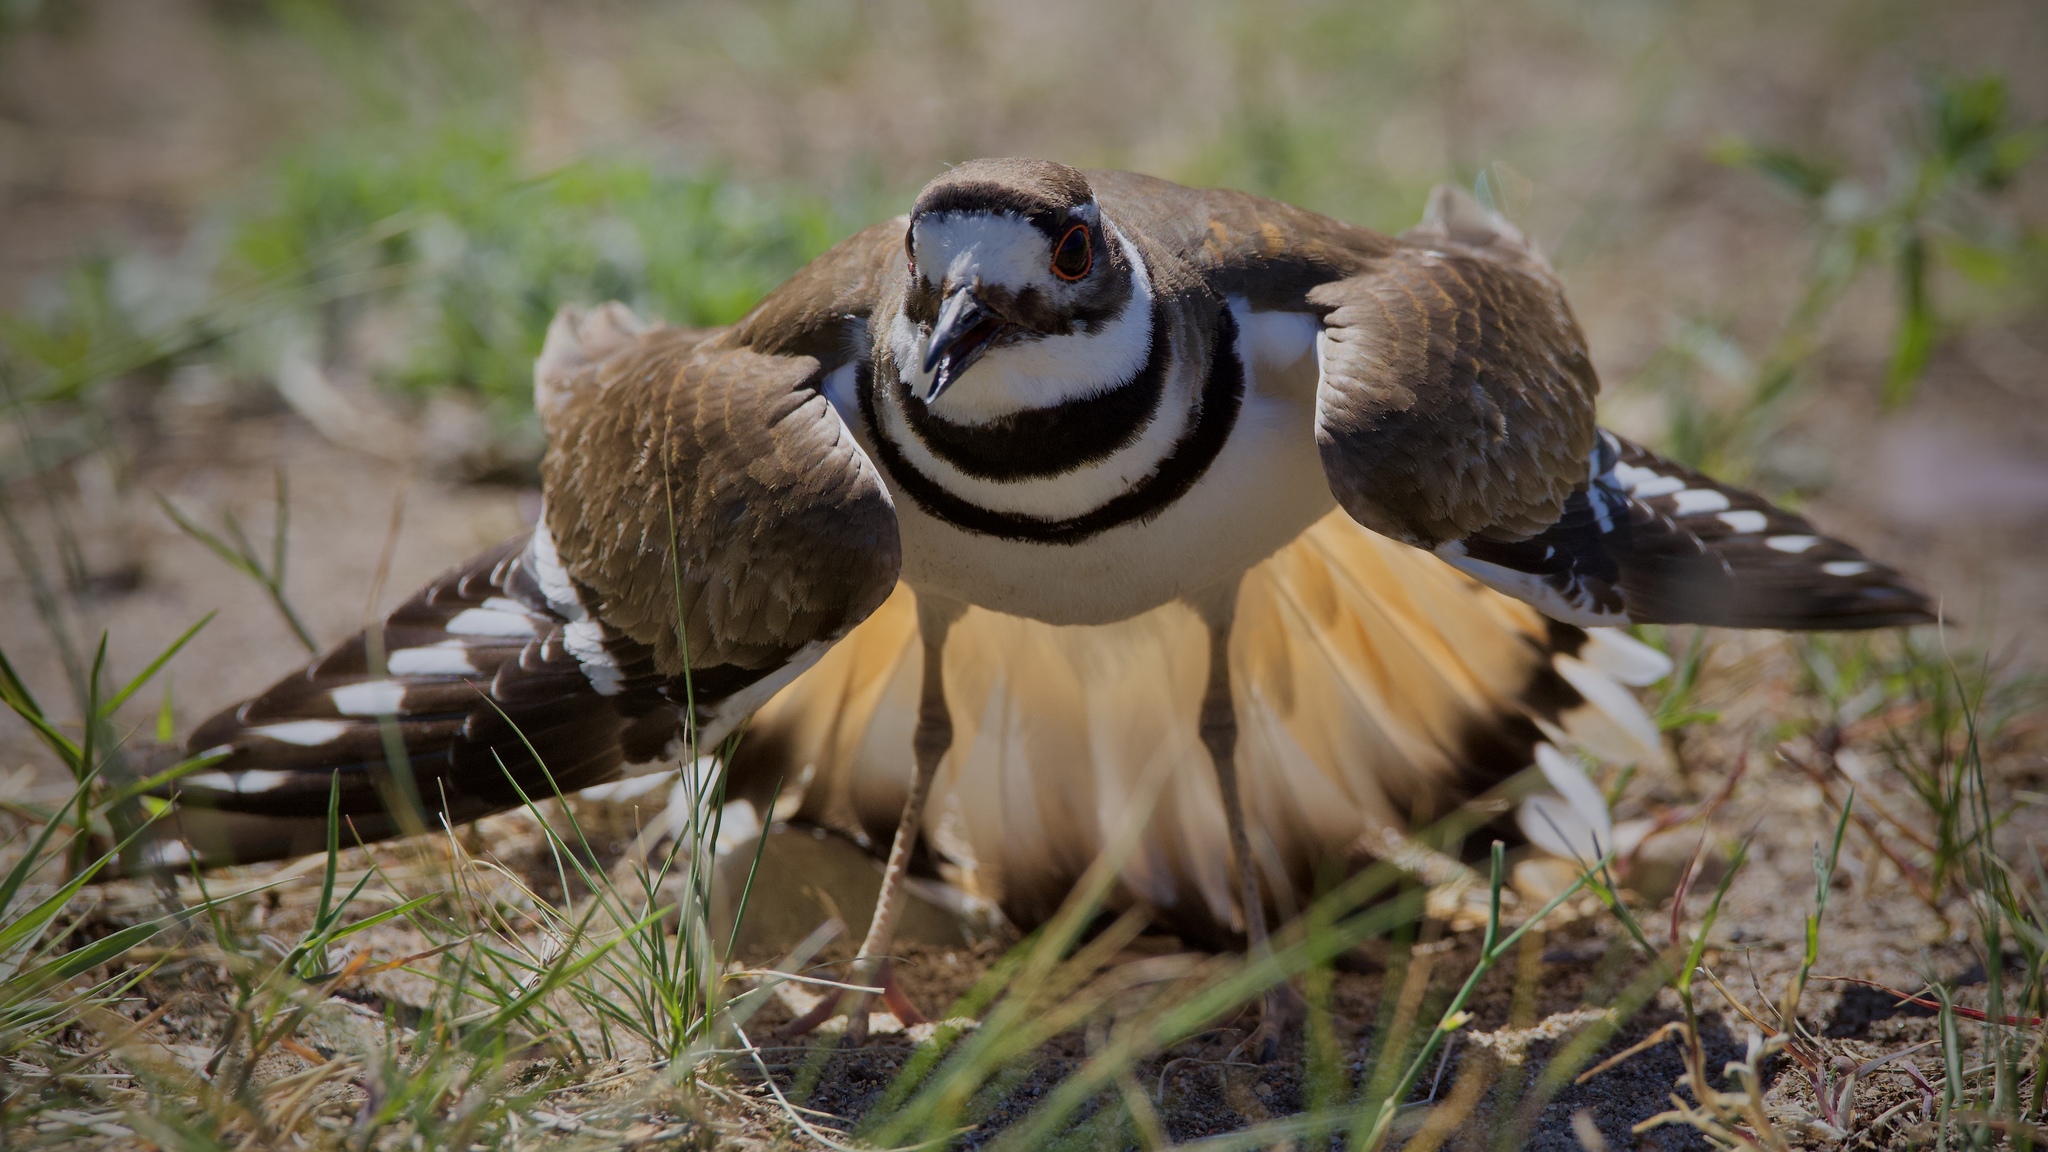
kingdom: Animalia
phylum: Chordata
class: Aves
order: Charadriiformes
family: Charadriidae
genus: Charadrius
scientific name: Charadrius vociferus
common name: Killdeer
